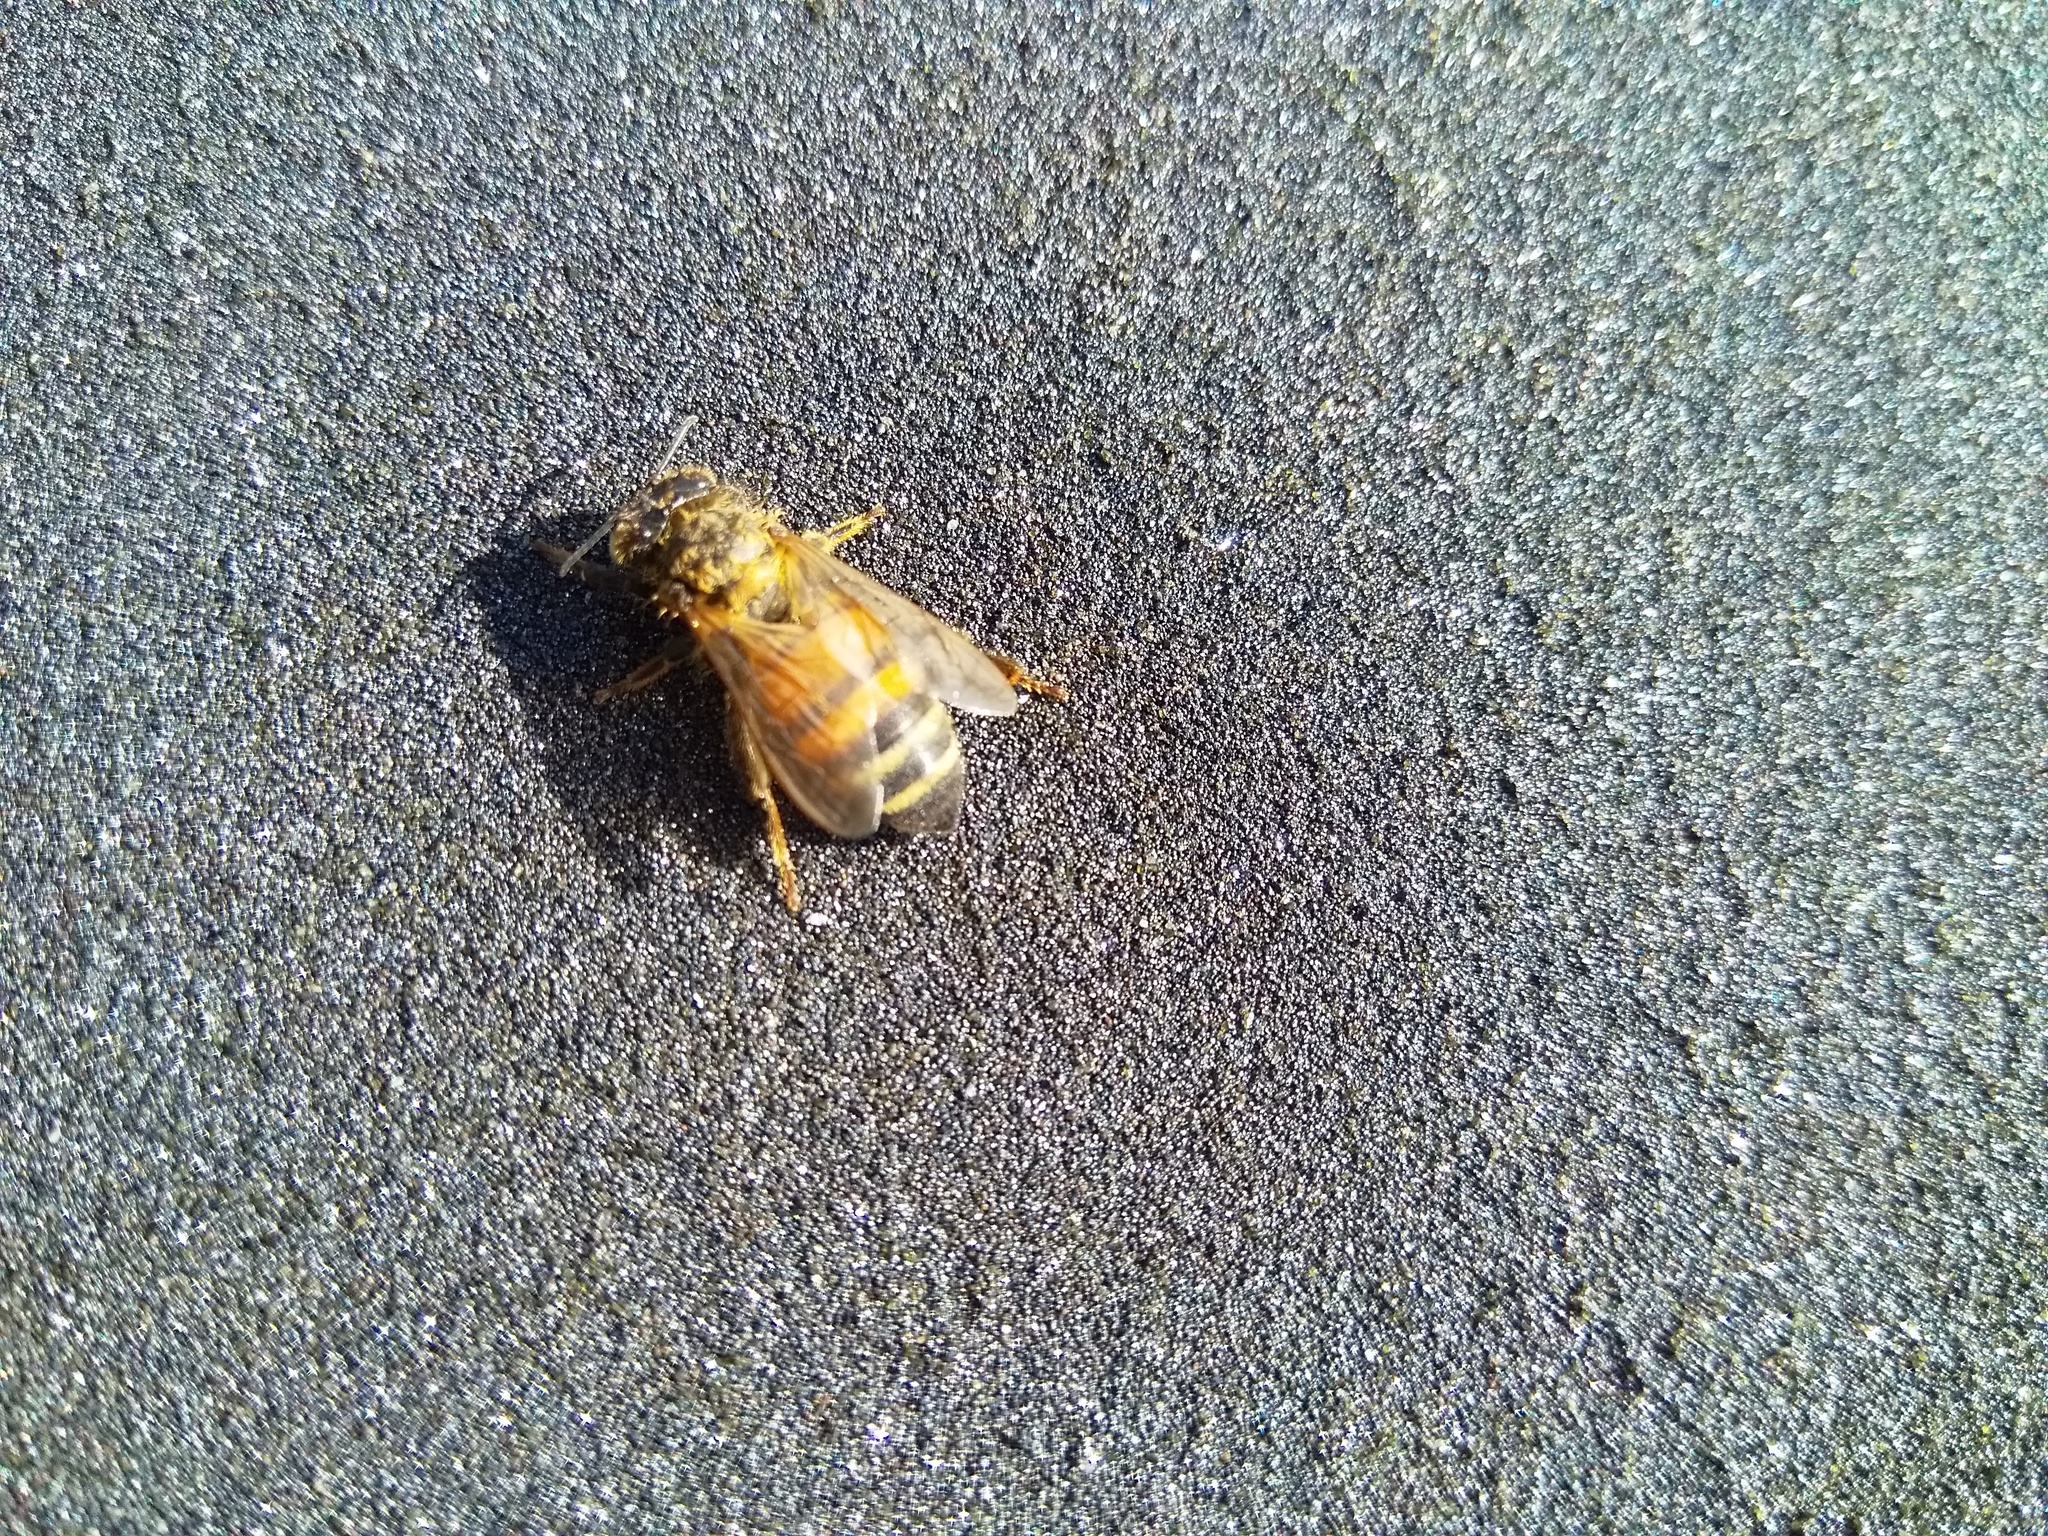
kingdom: Animalia
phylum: Arthropoda
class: Insecta
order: Hymenoptera
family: Apidae
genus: Apis
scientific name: Apis mellifera
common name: Honey bee
